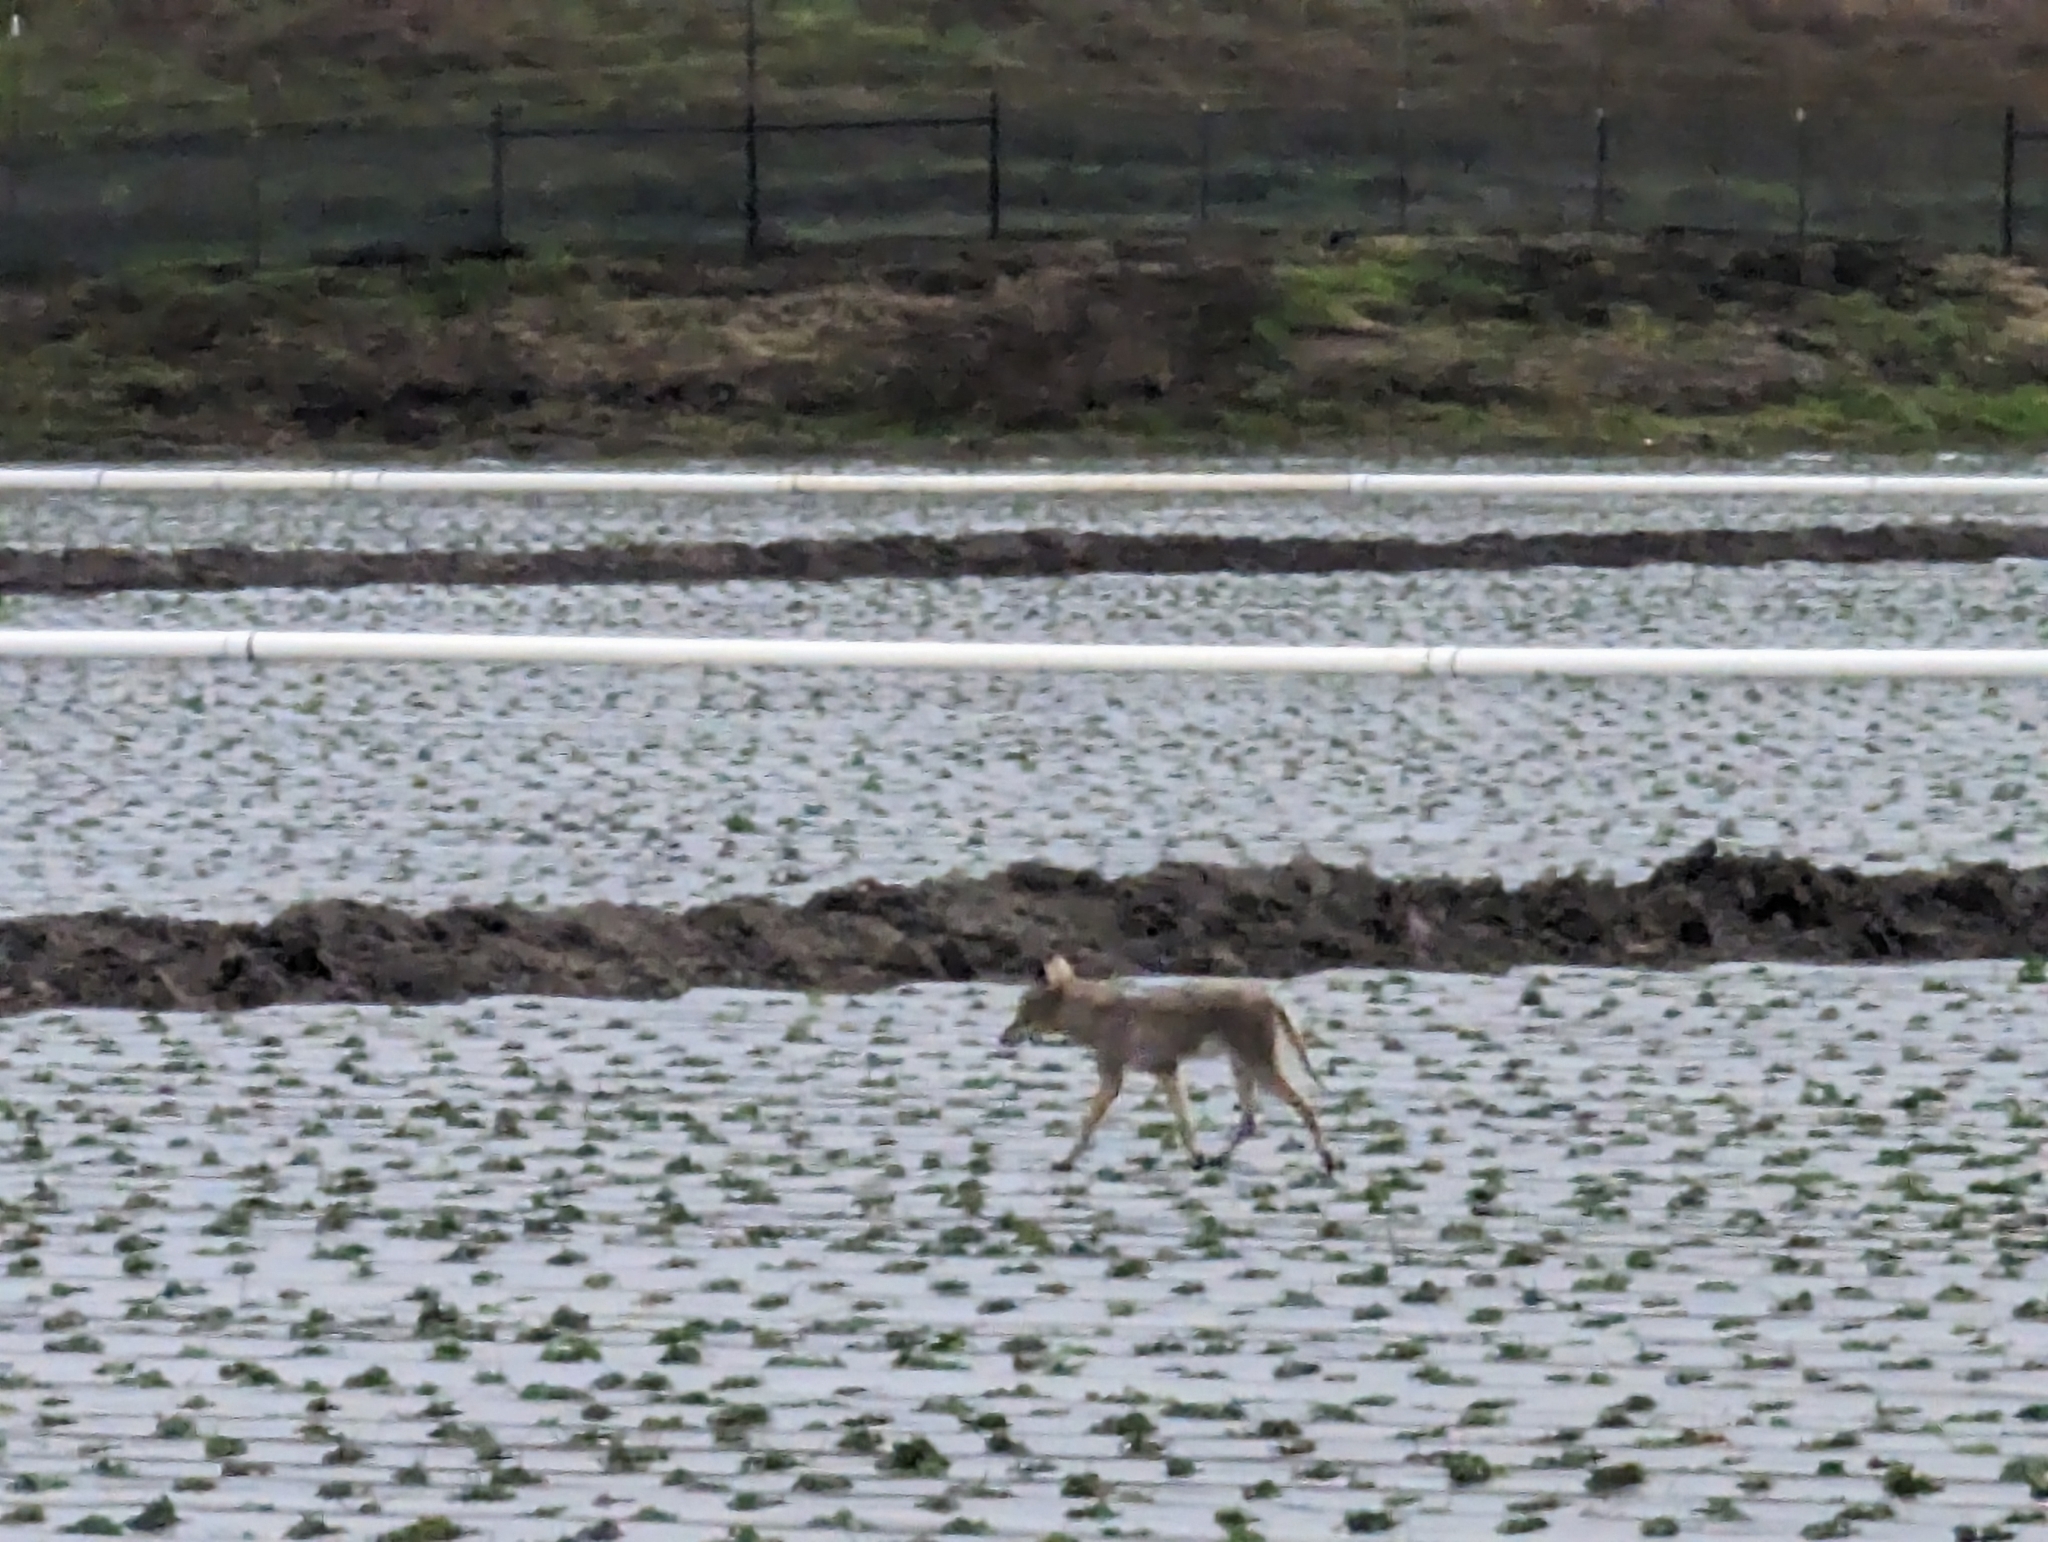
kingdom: Animalia
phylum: Chordata
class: Mammalia
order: Carnivora
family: Canidae
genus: Canis
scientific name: Canis latrans
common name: Coyote
